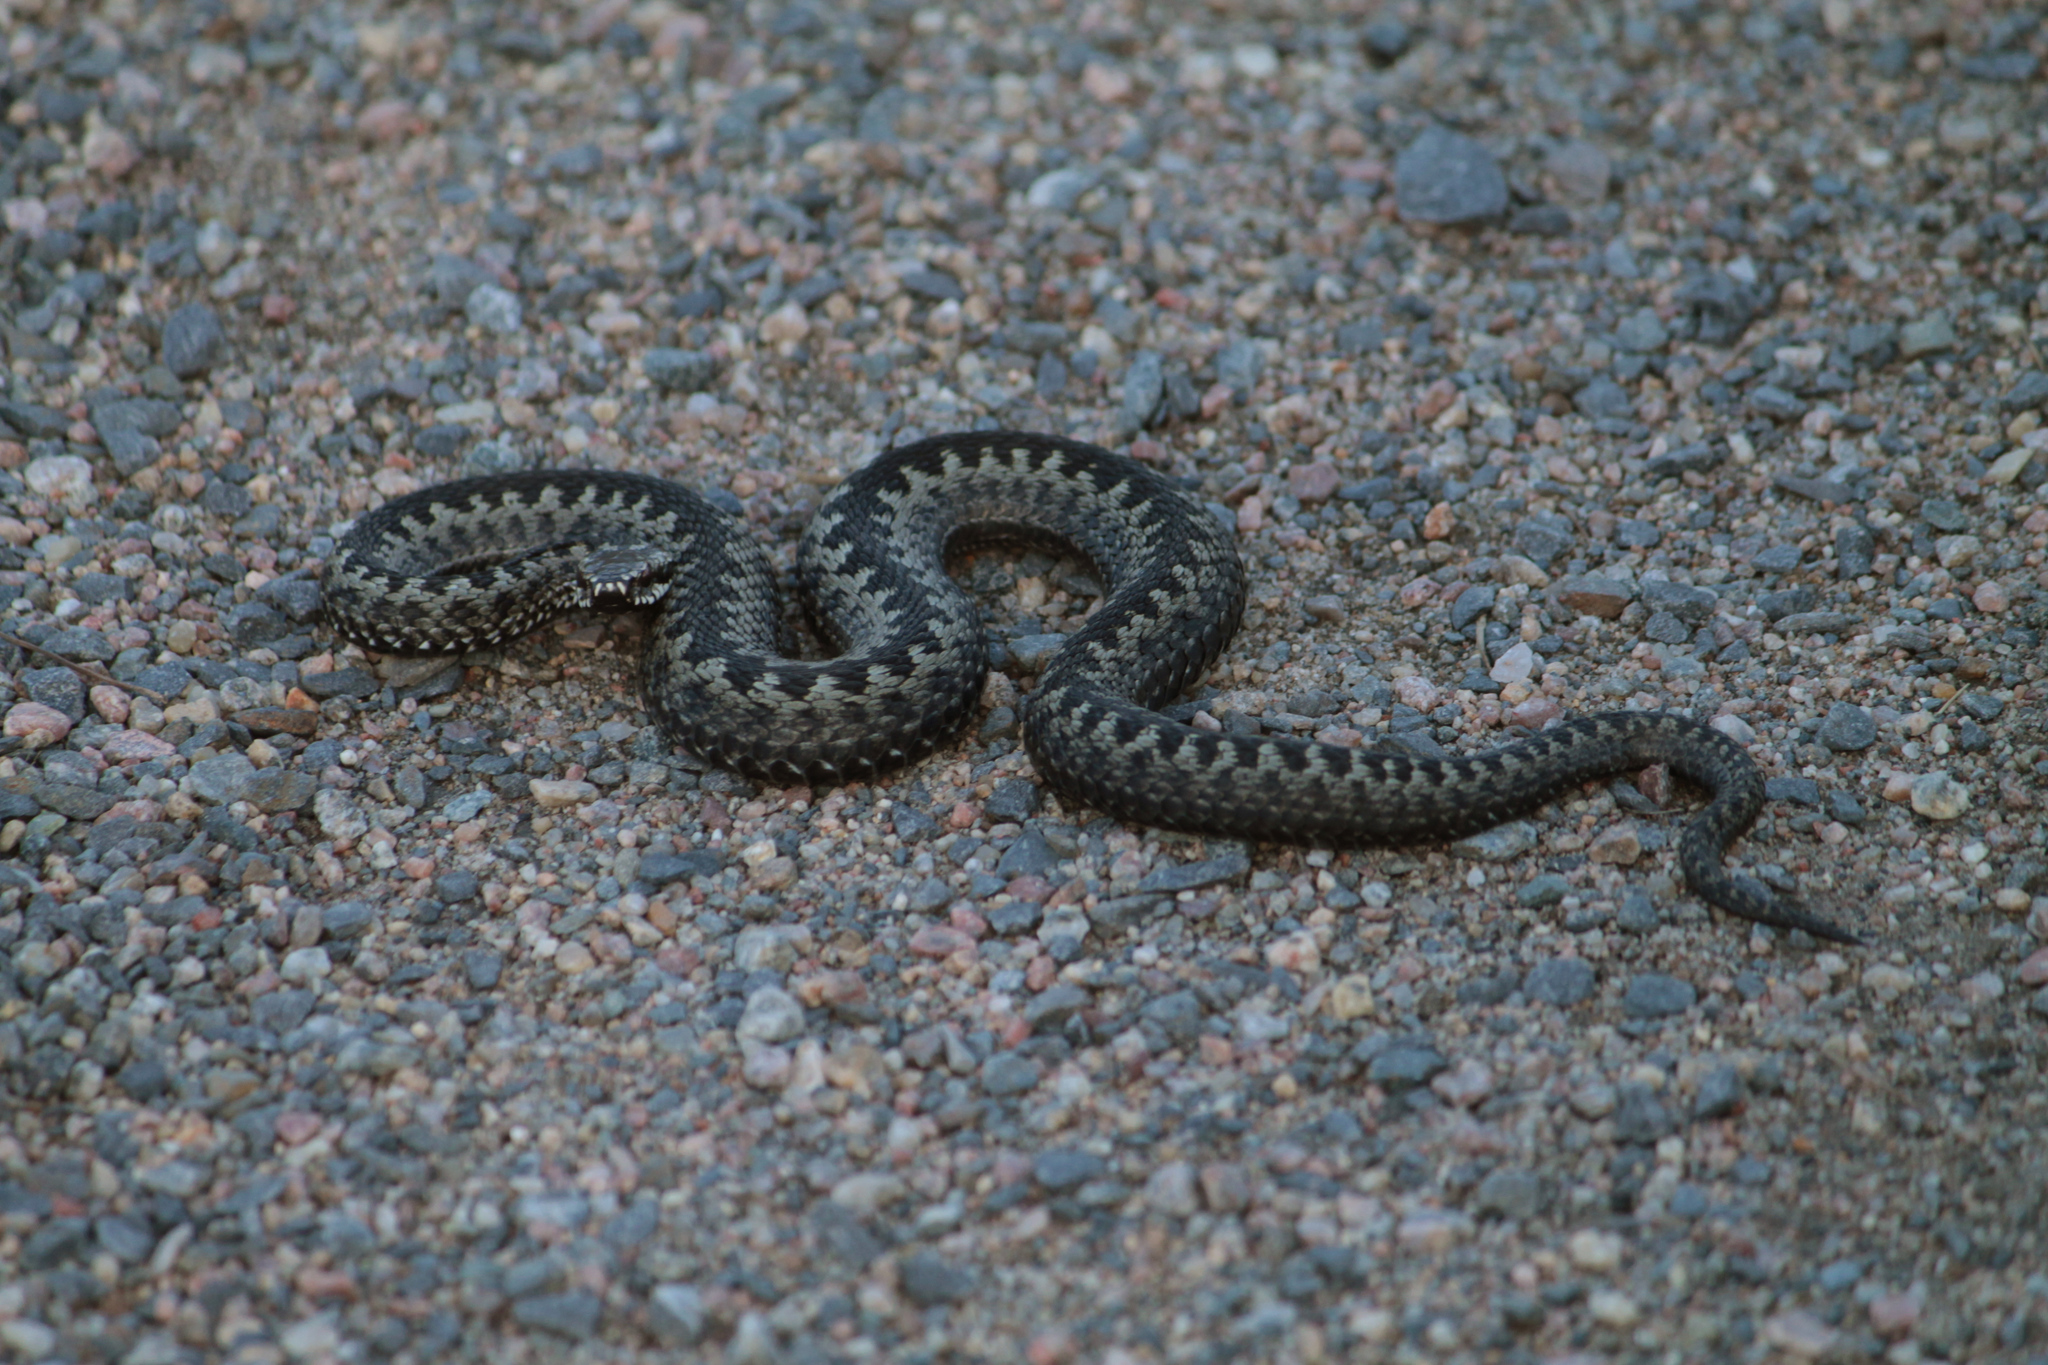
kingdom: Animalia
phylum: Chordata
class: Squamata
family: Viperidae
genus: Vipera
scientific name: Vipera berus
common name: Adder
